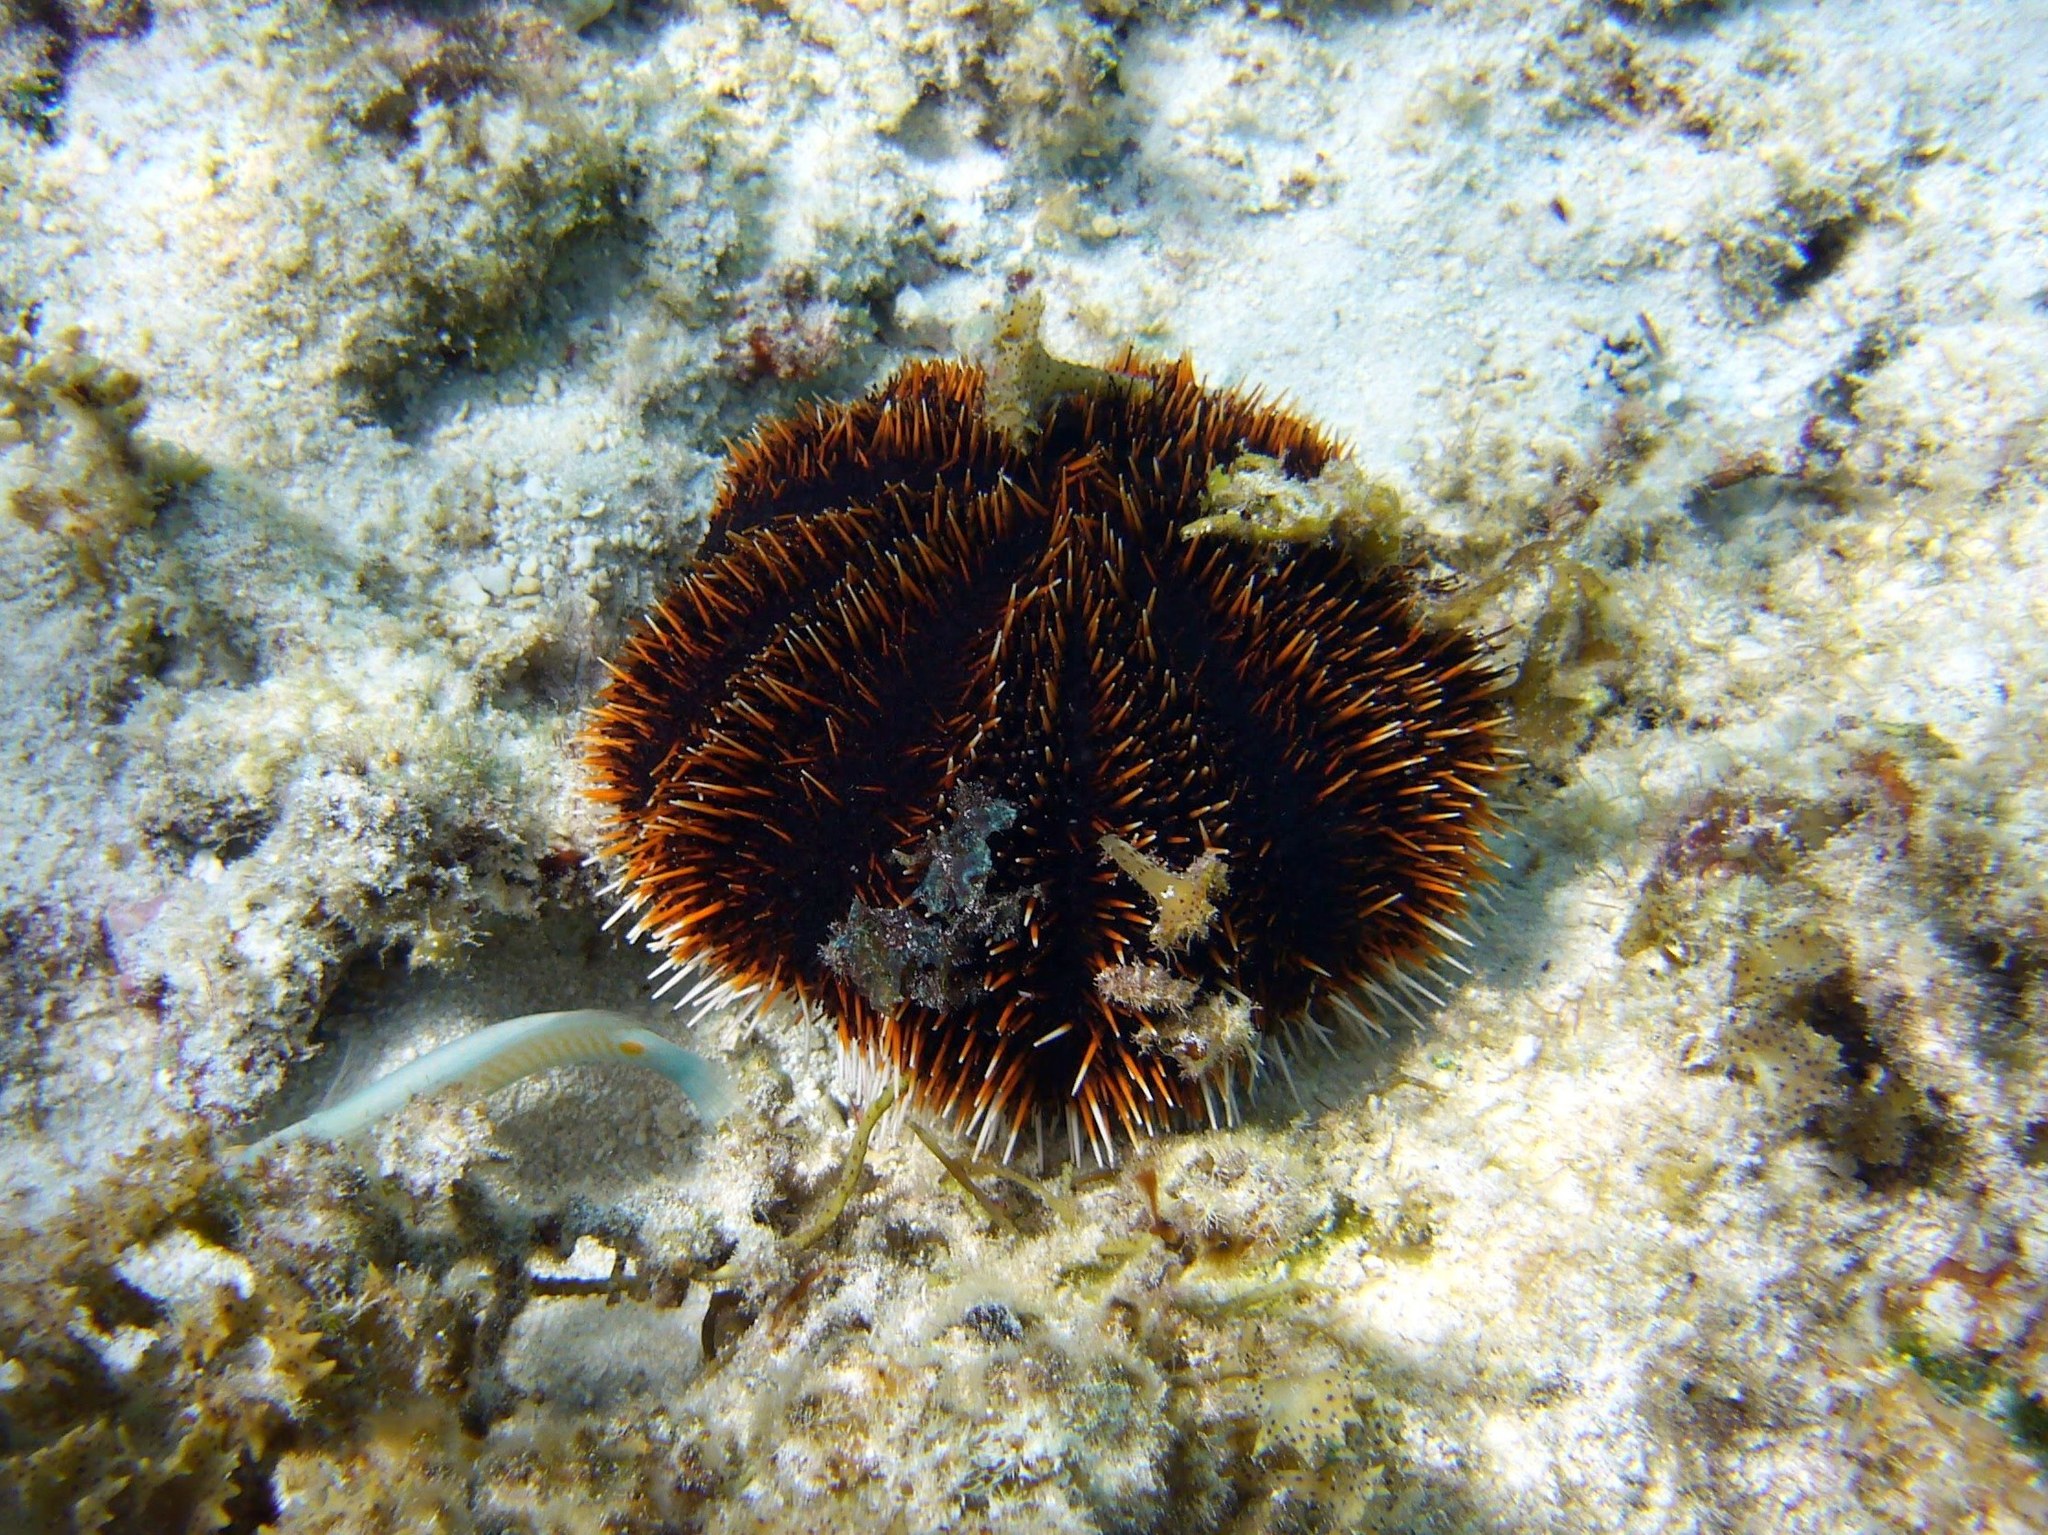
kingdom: Animalia
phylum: Echinodermata
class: Echinoidea
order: Camarodonta
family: Toxopneustidae
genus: Tripneustes
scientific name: Tripneustes gratilla
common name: Bischofsmützenseeigel
